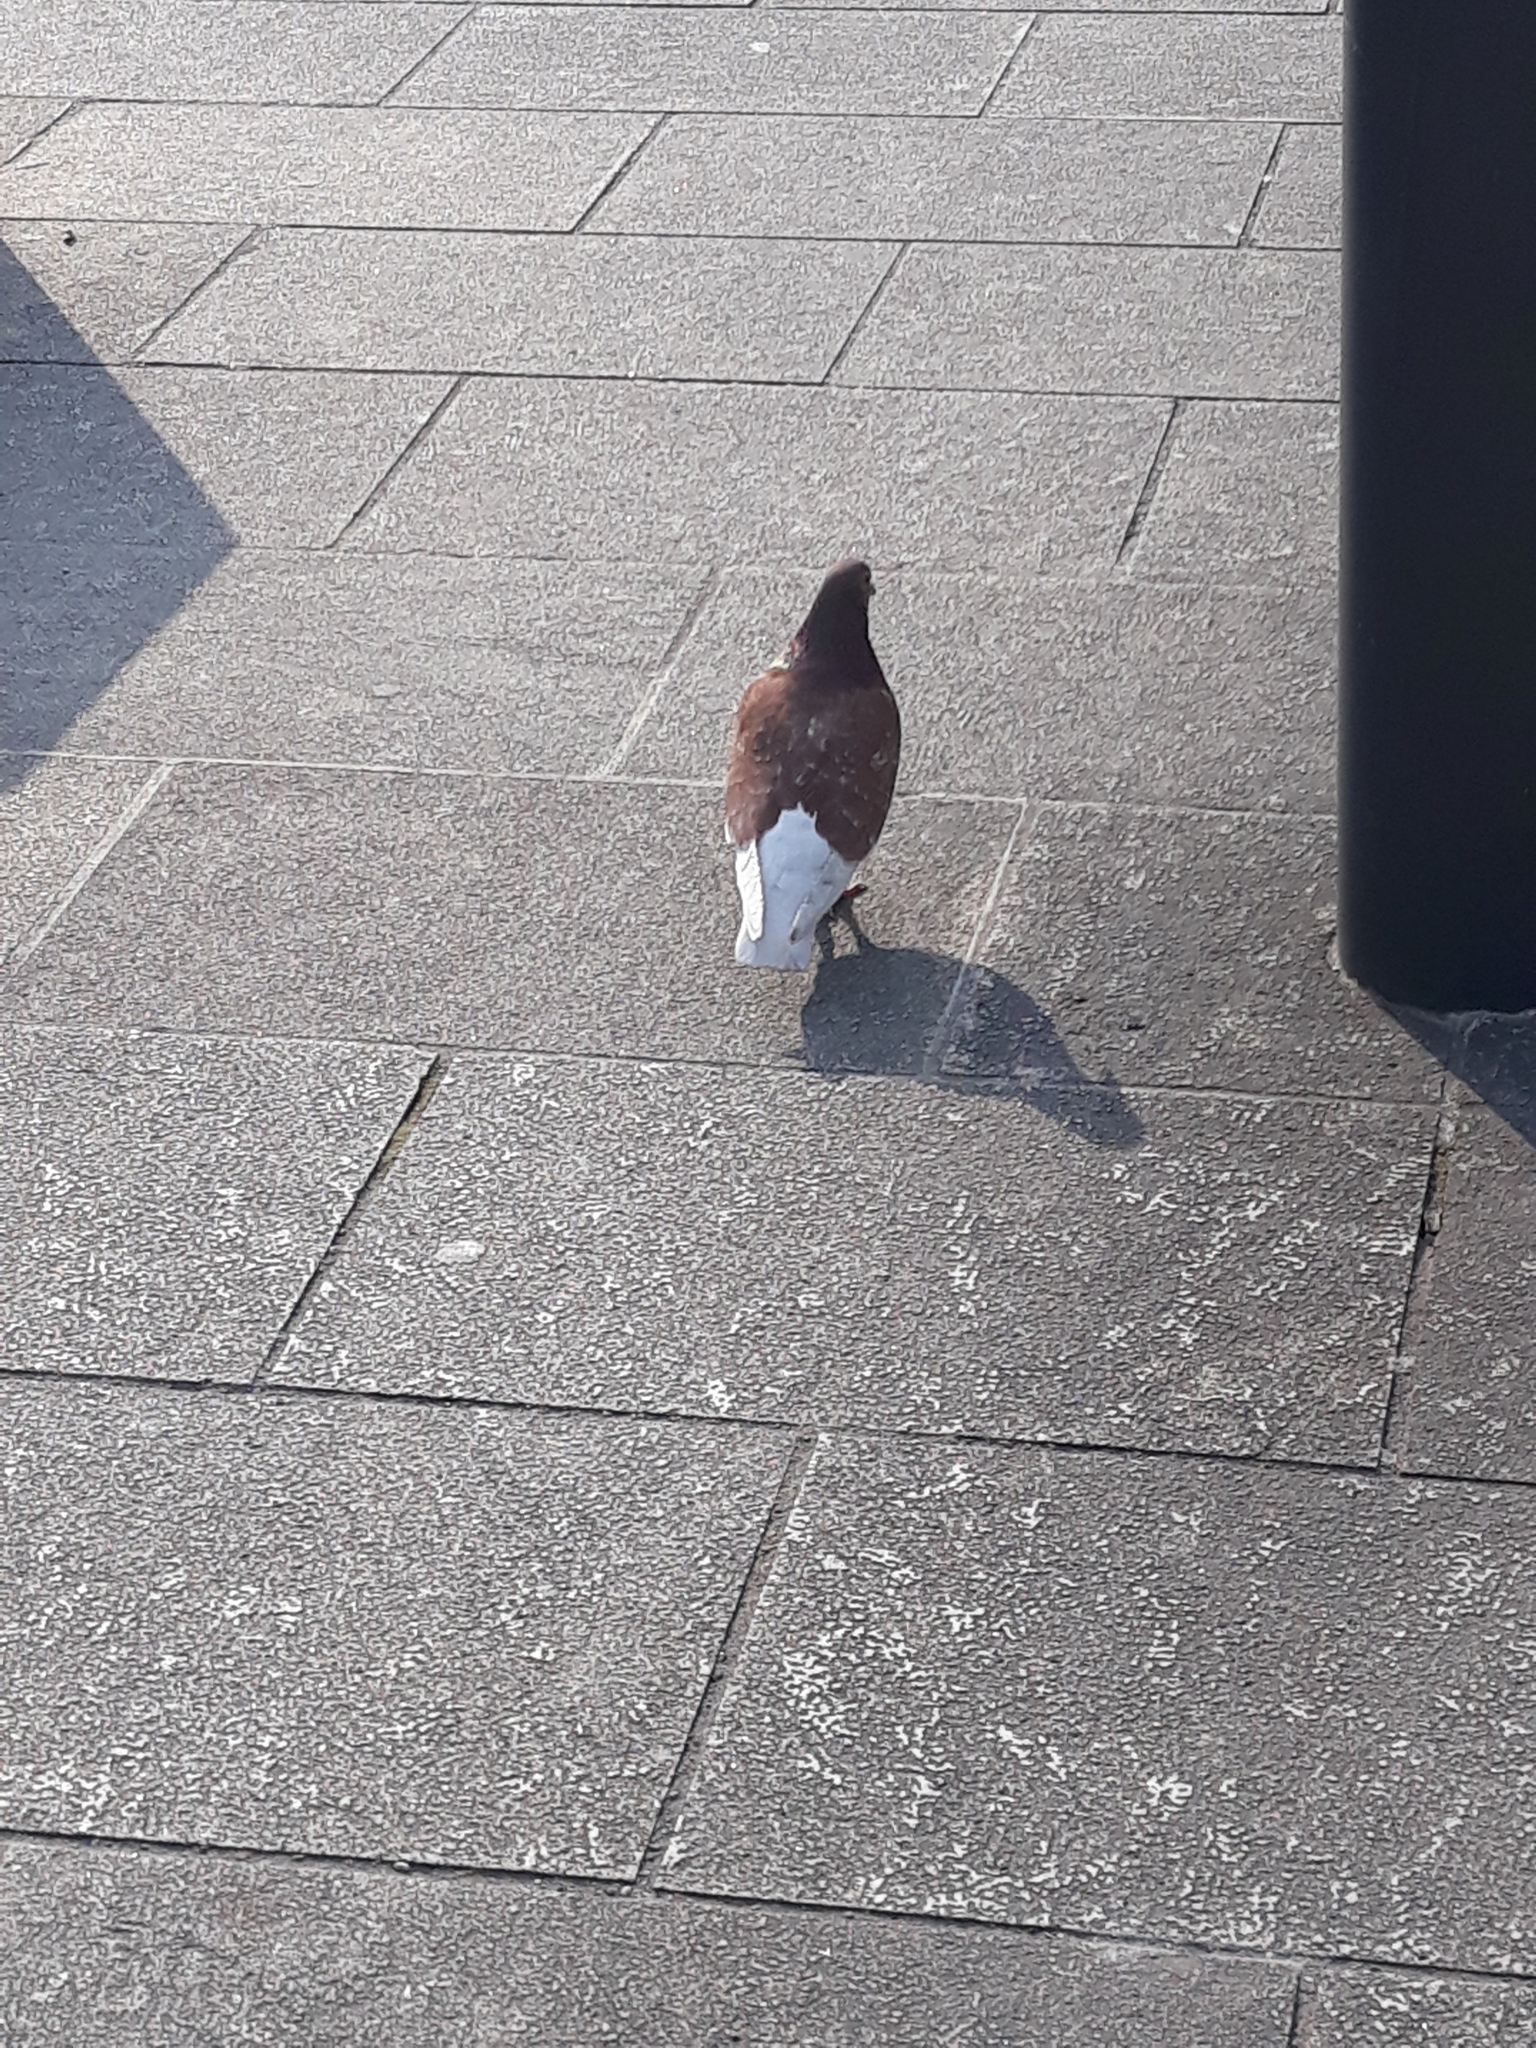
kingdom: Animalia
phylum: Chordata
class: Aves
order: Columbiformes
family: Columbidae
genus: Columba
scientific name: Columba livia
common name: Rock pigeon
